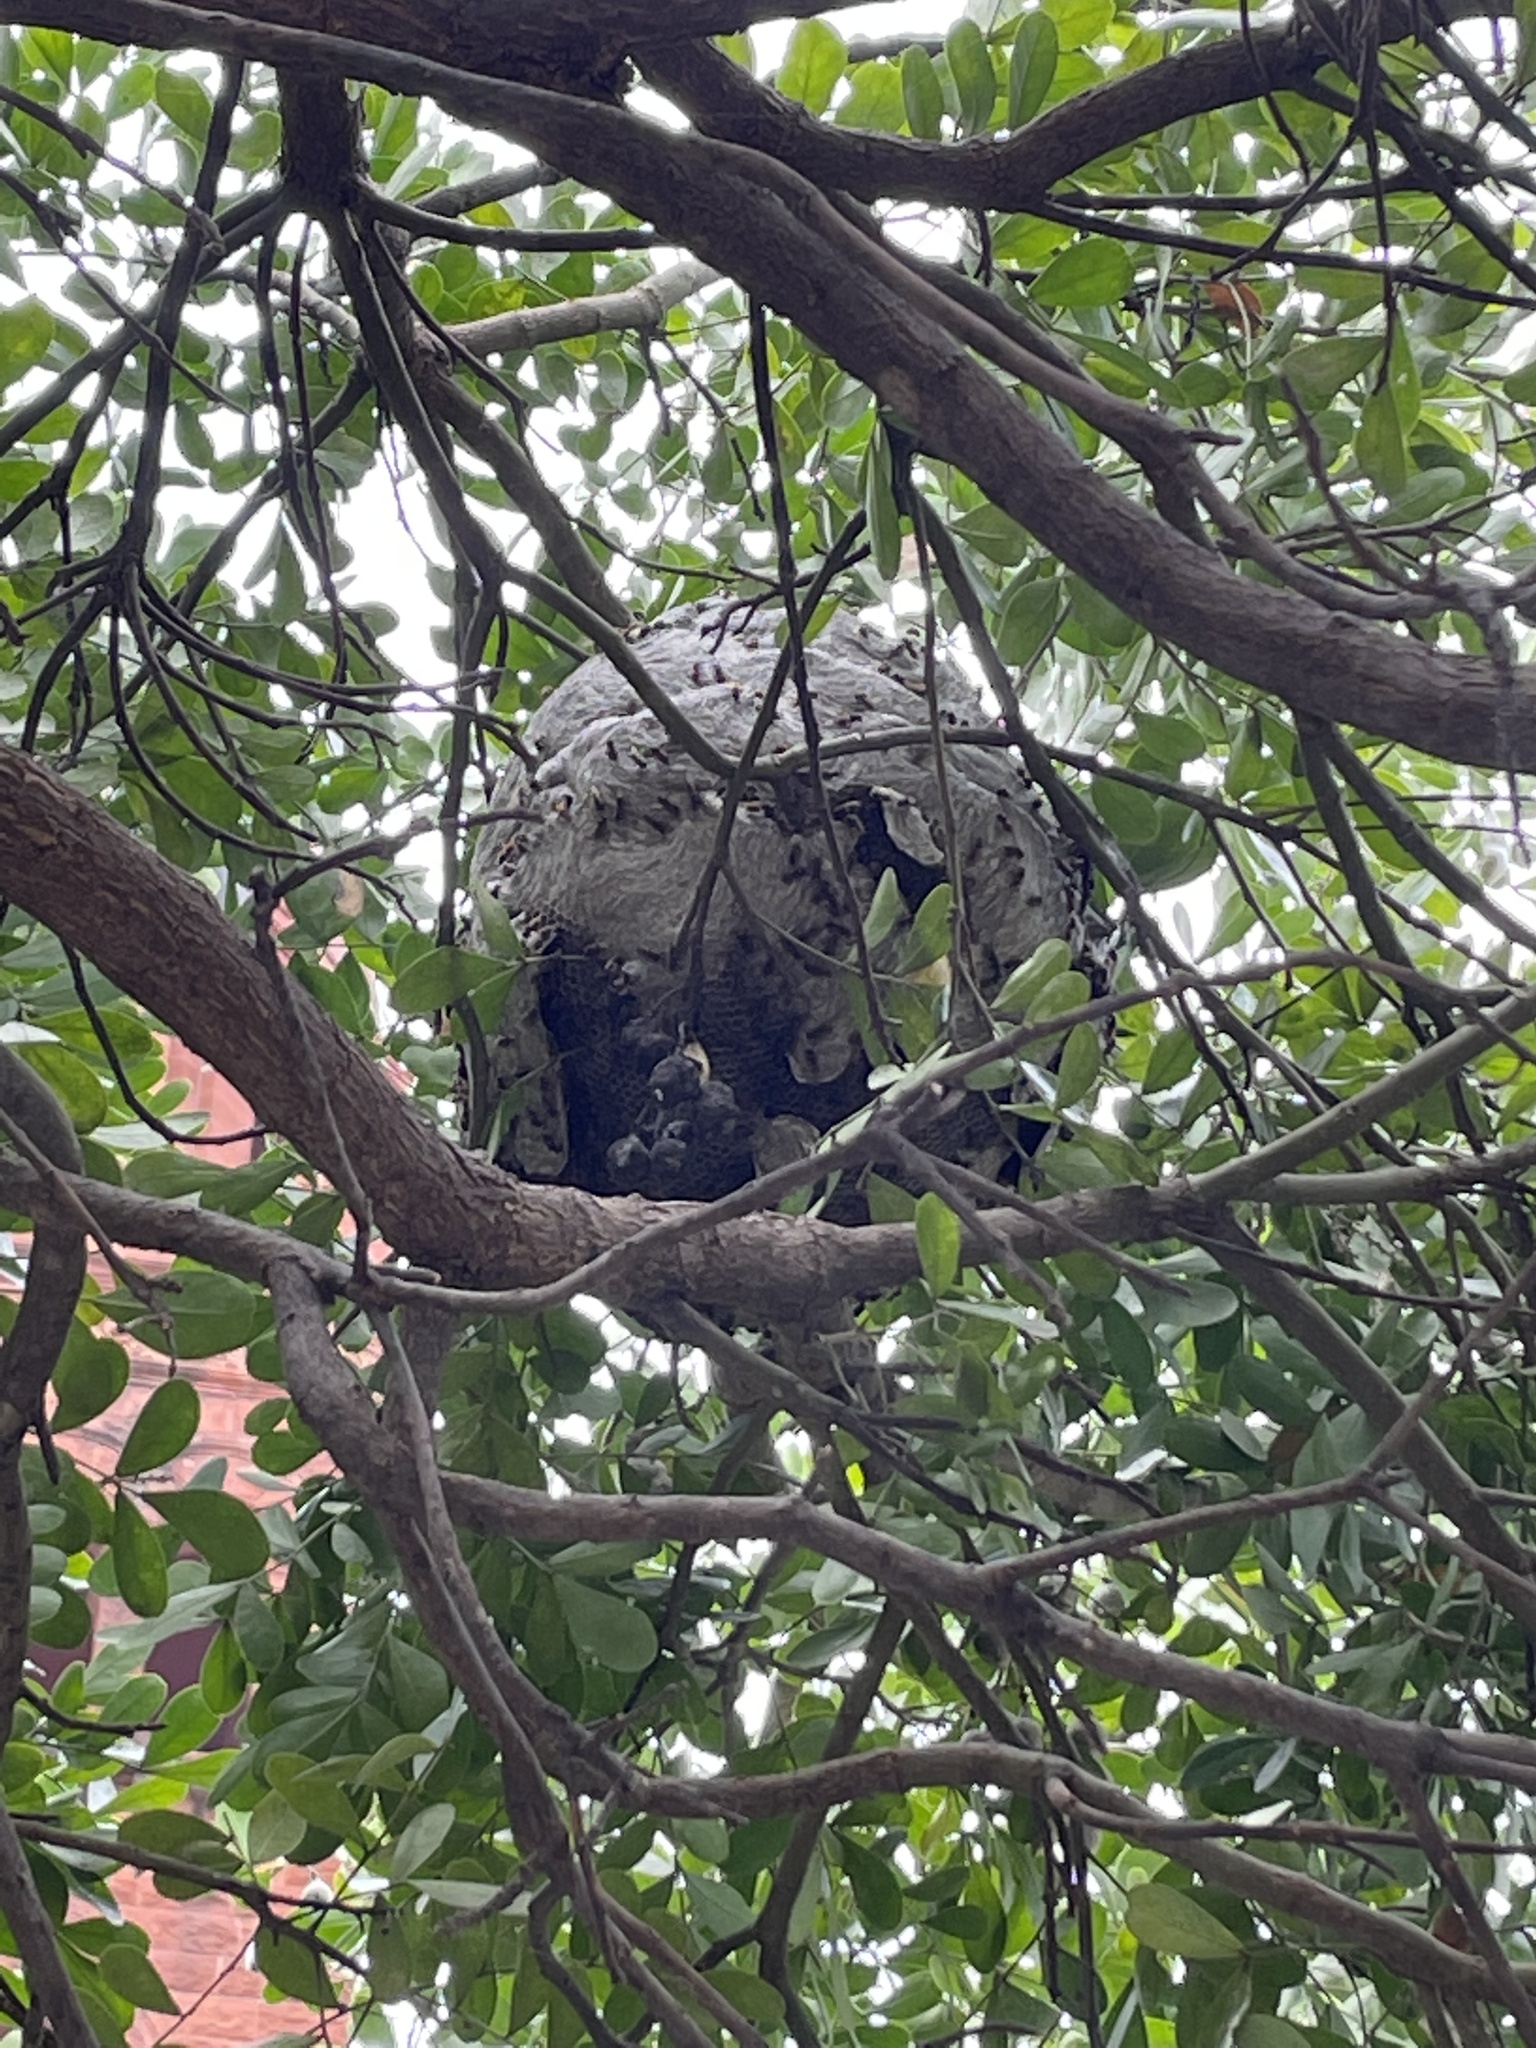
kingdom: Animalia
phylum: Arthropoda
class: Insecta
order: Hymenoptera
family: Vespidae
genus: Brachygastra
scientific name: Brachygastra mellifica
